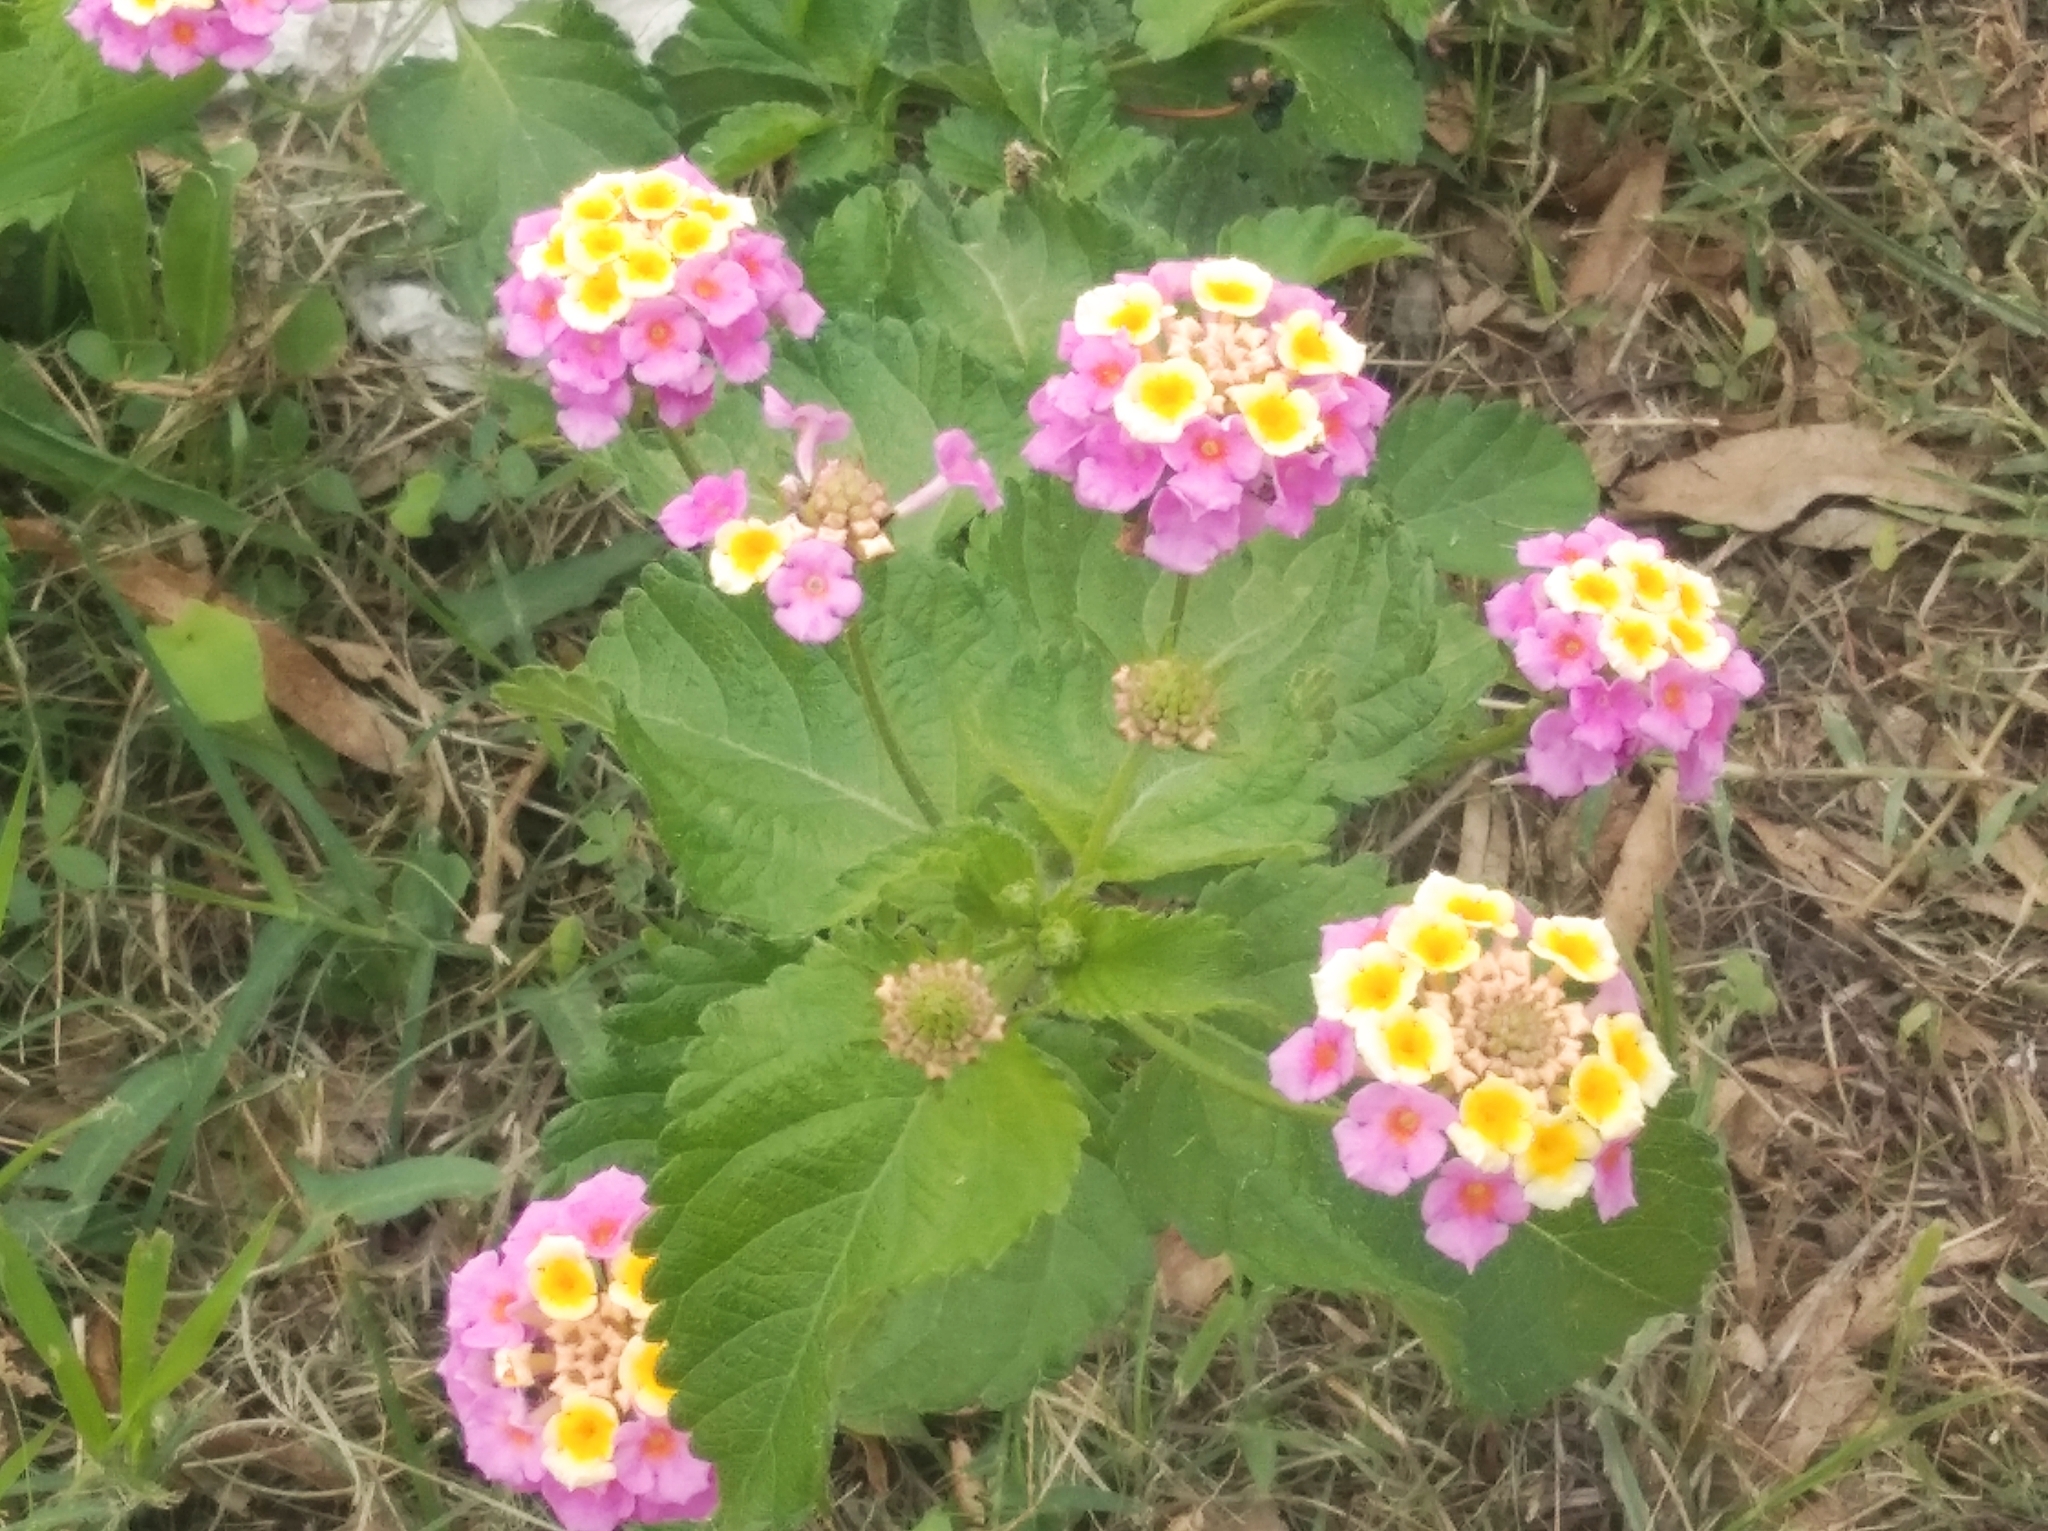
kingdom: Plantae
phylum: Tracheophyta
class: Magnoliopsida
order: Lamiales
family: Verbenaceae
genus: Lantana
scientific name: Lantana camara
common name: Lantana
